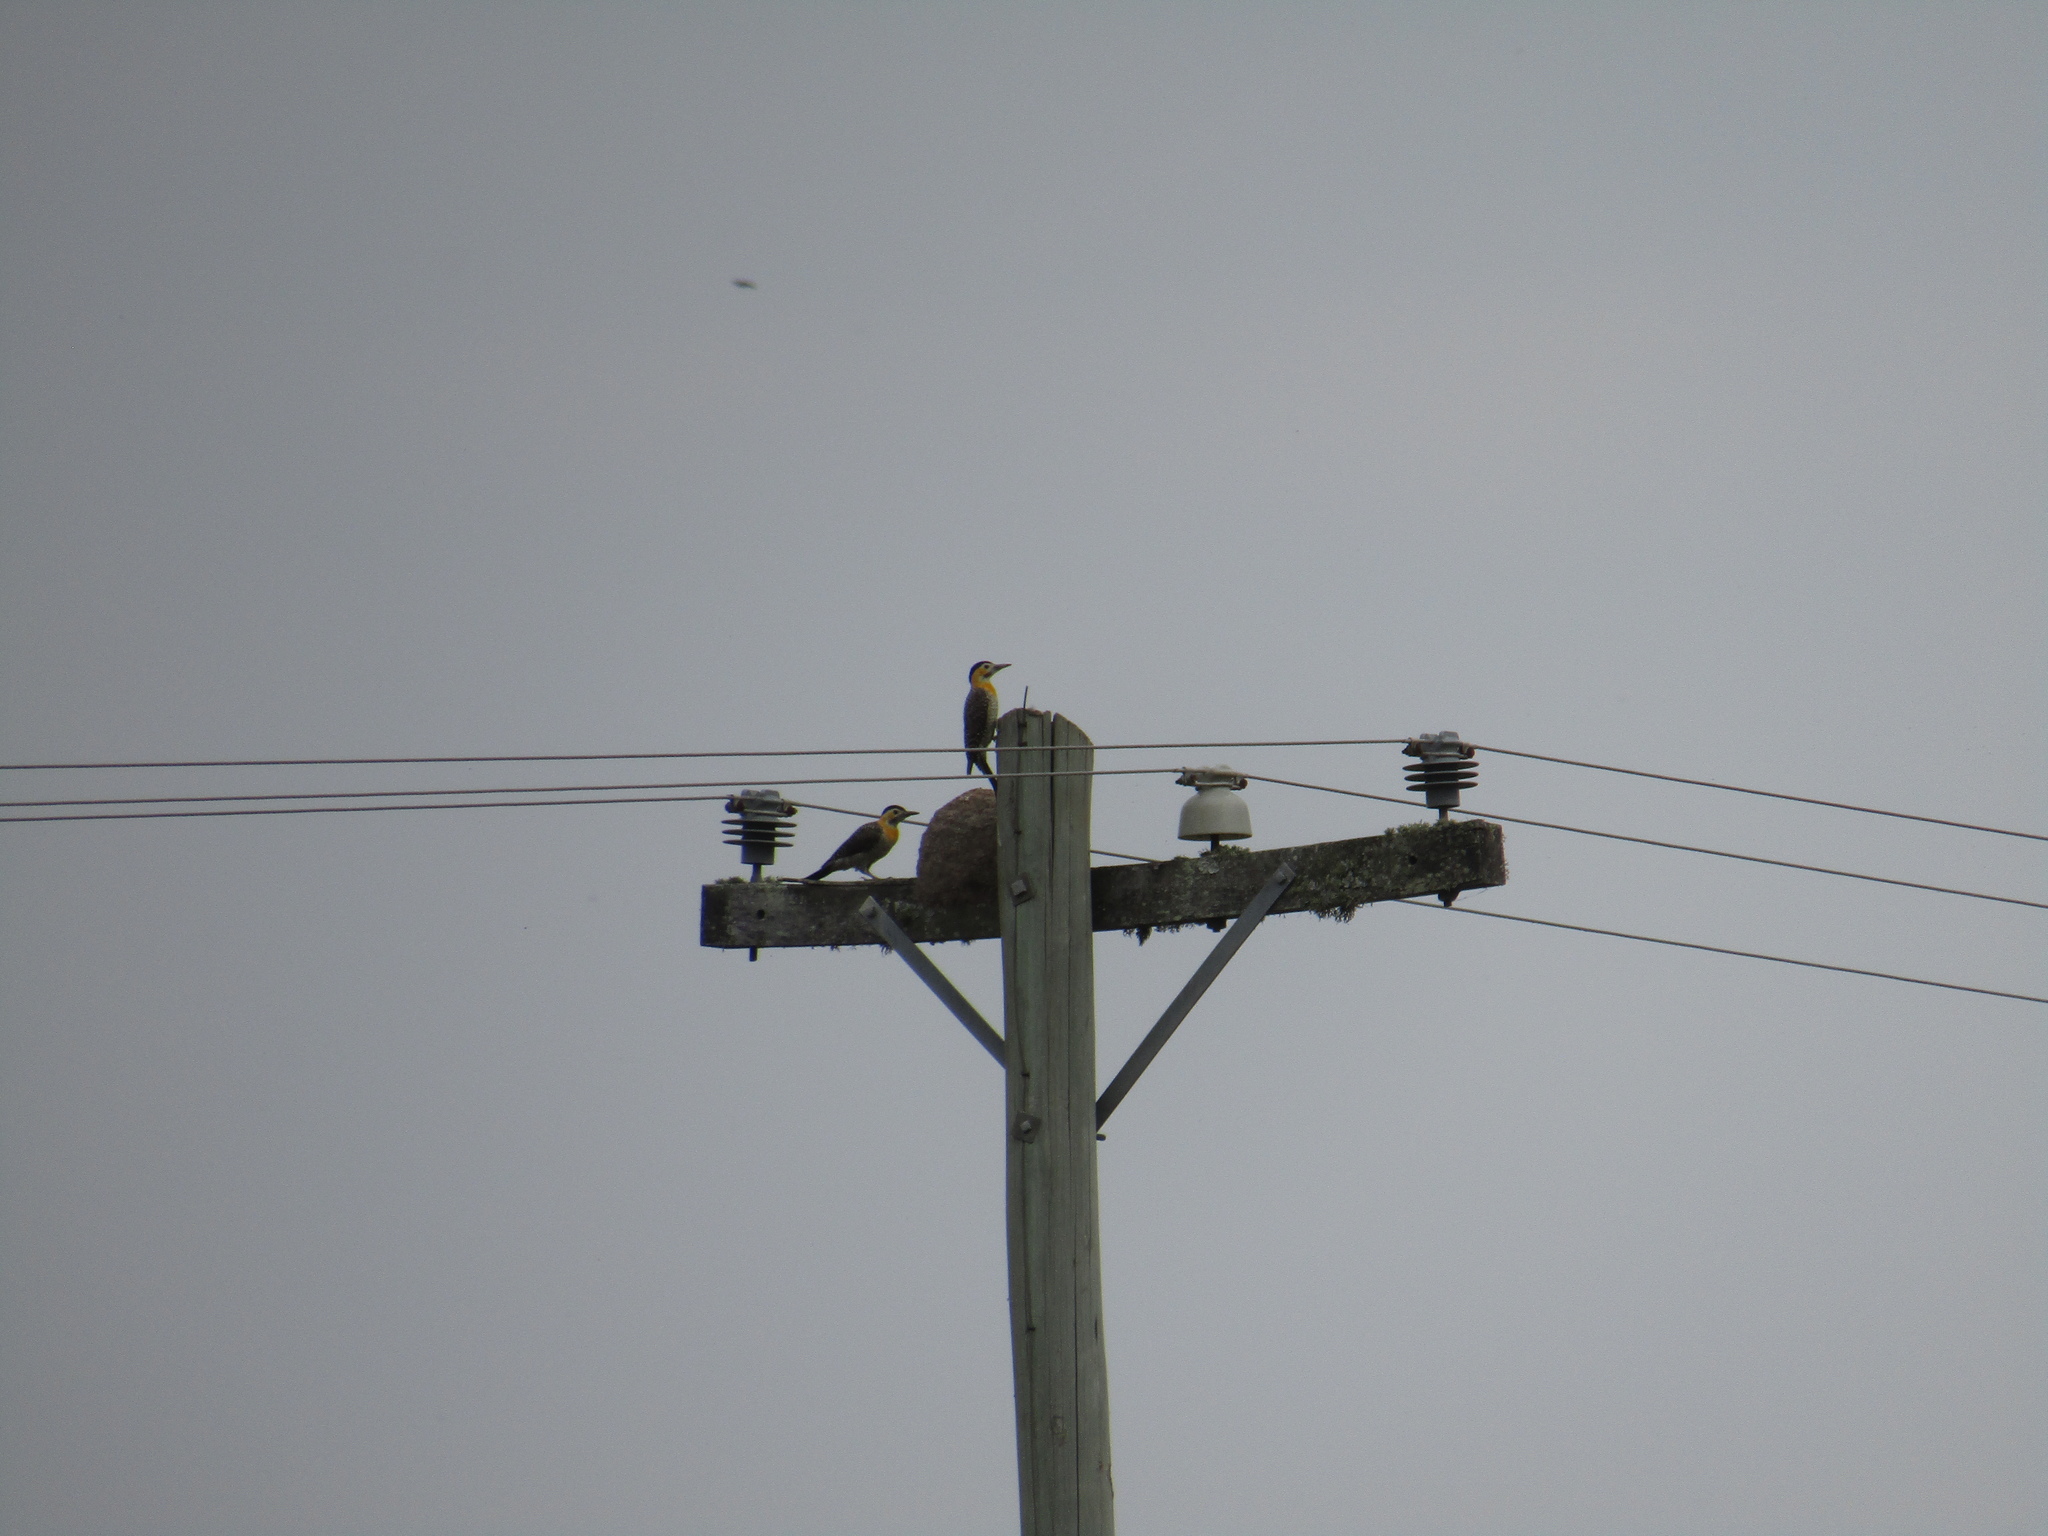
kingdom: Animalia
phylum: Chordata
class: Aves
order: Piciformes
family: Picidae
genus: Colaptes
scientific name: Colaptes campestris
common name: Campo flicker
